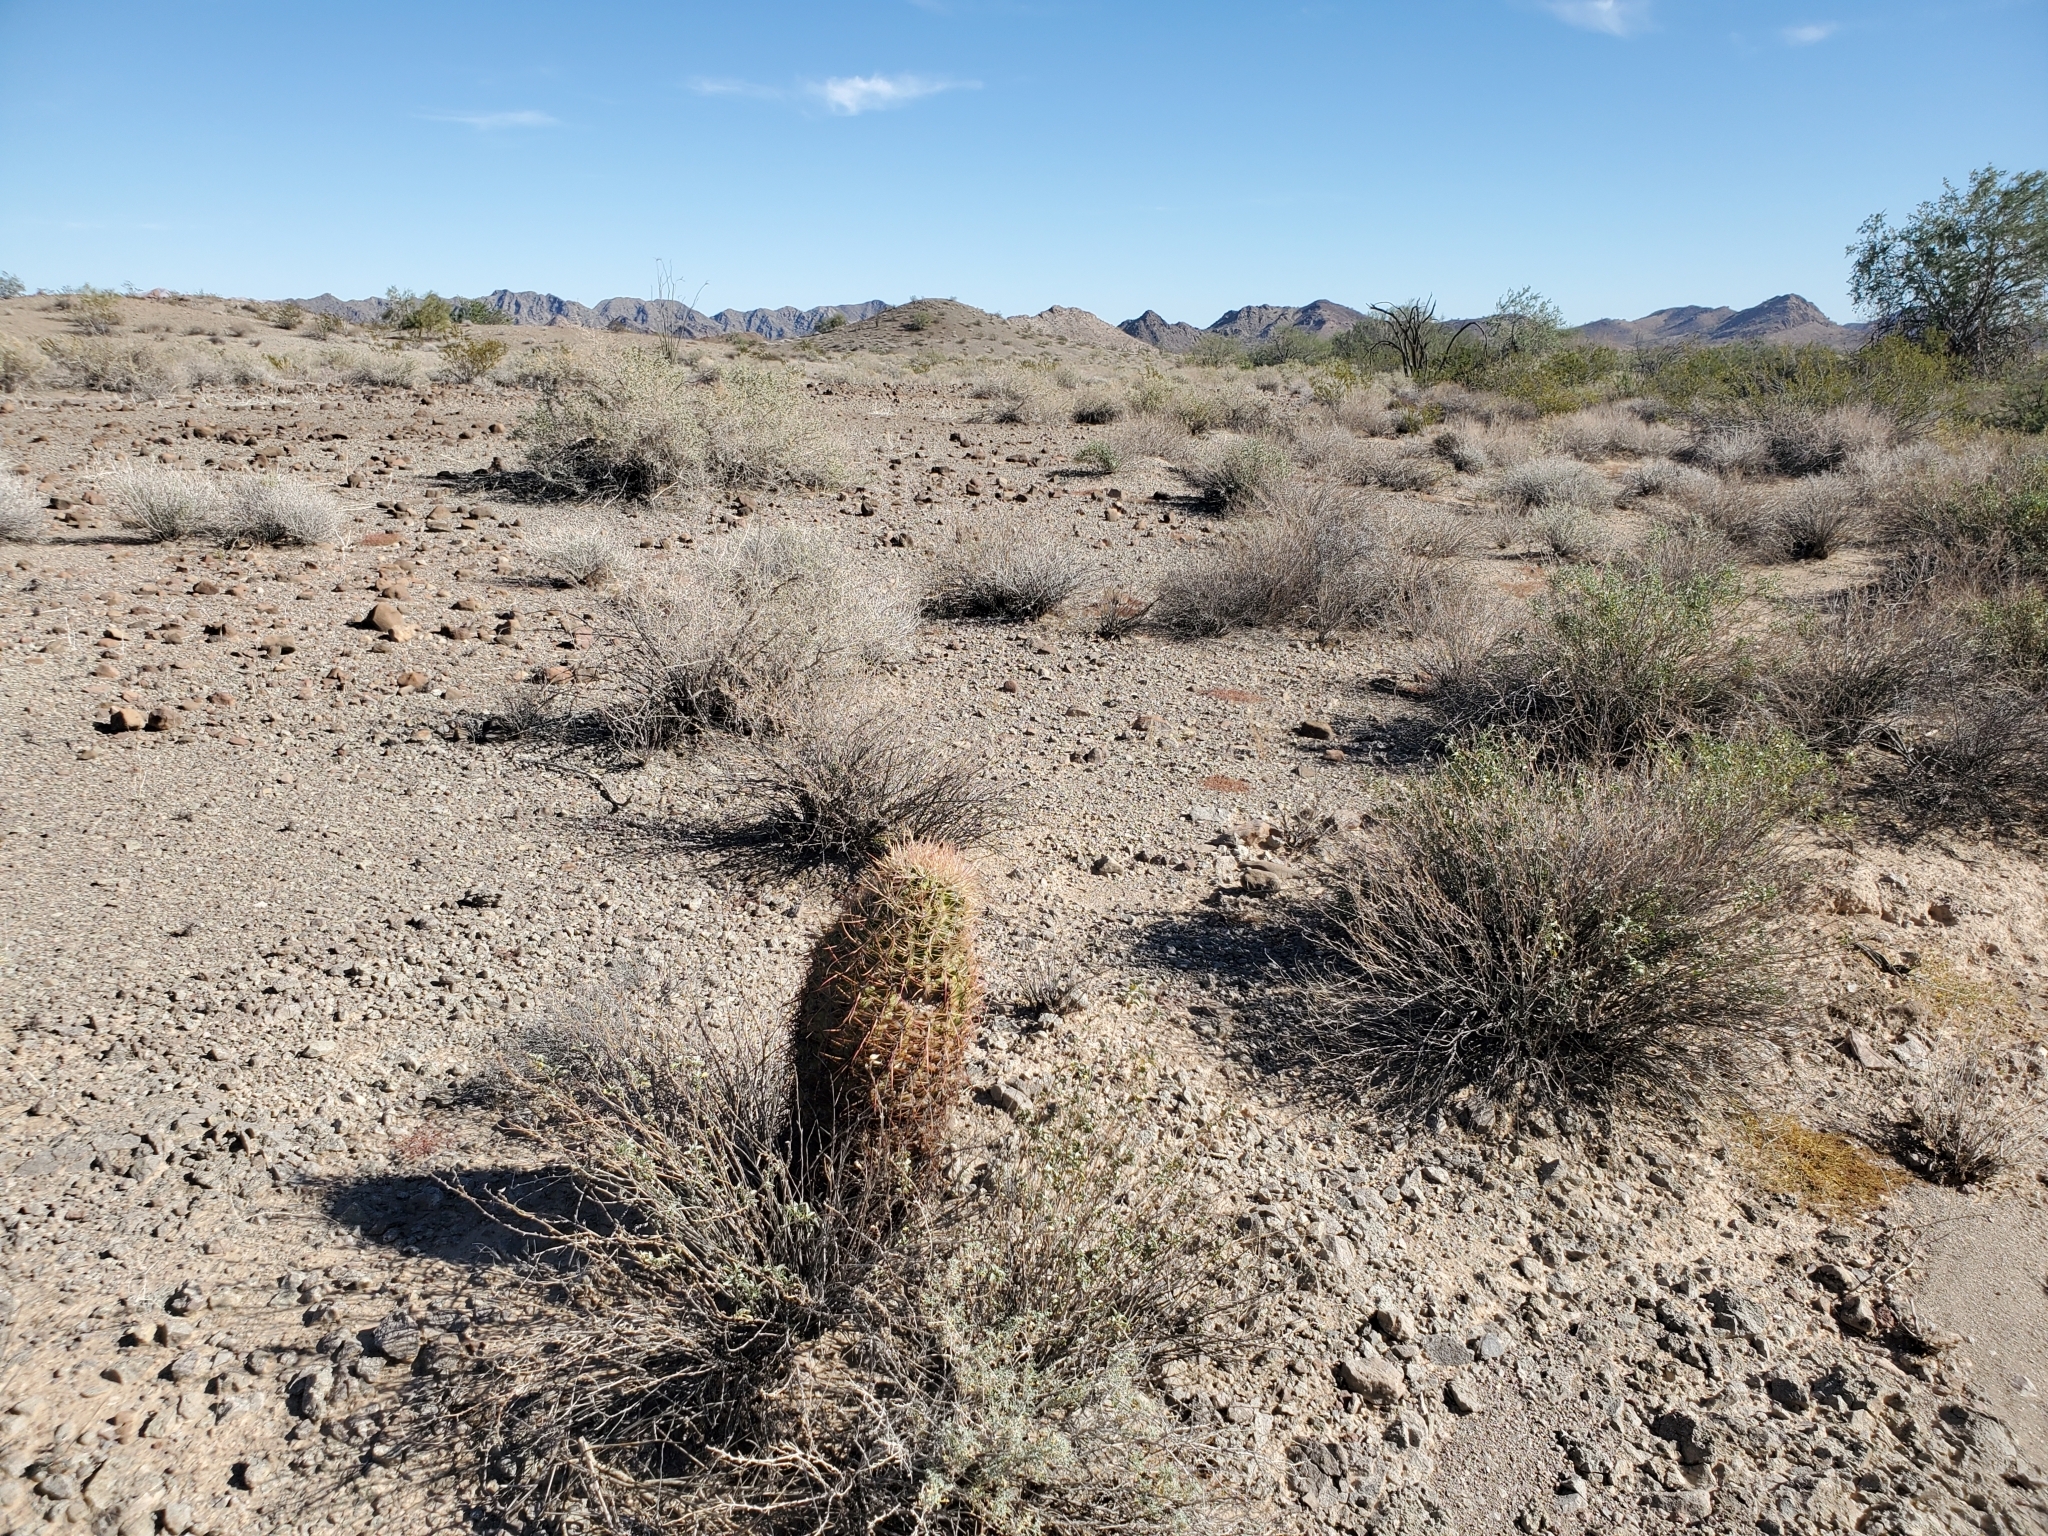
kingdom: Plantae
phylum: Tracheophyta
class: Magnoliopsida
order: Caryophyllales
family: Cactaceae
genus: Ferocactus
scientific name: Ferocactus cylindraceus
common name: California barrel cactus
